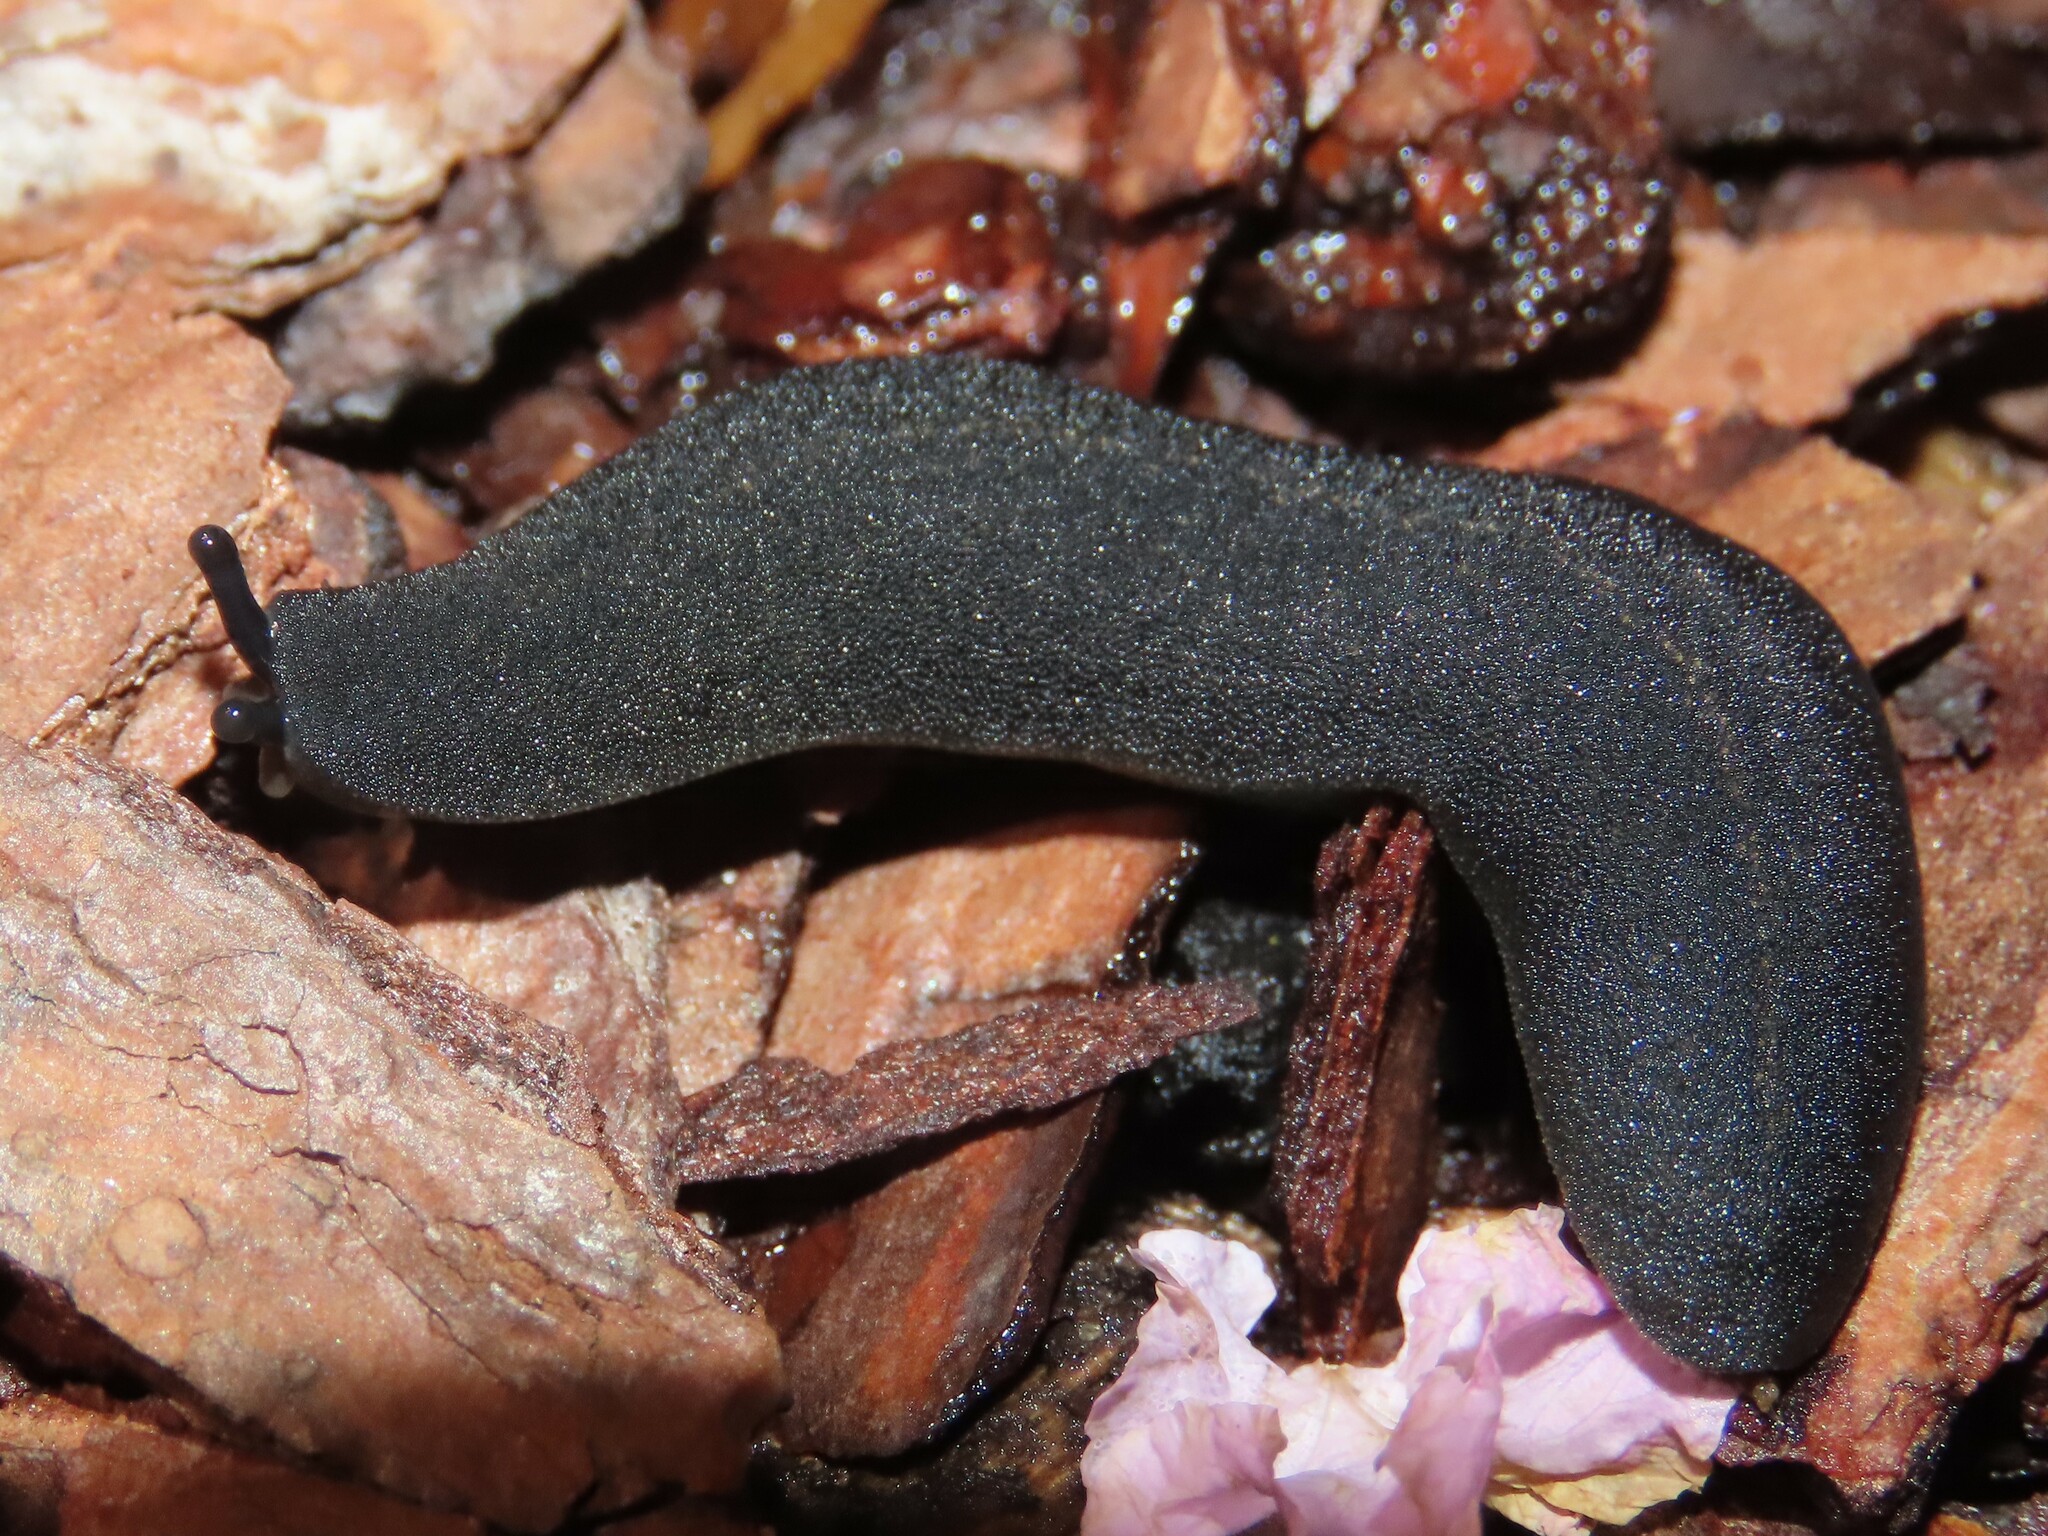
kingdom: Animalia
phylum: Mollusca
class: Gastropoda
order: Systellommatophora
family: Veronicellidae
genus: Belocaulus
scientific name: Belocaulus angustipes
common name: Black velvet leatherleaf slug
